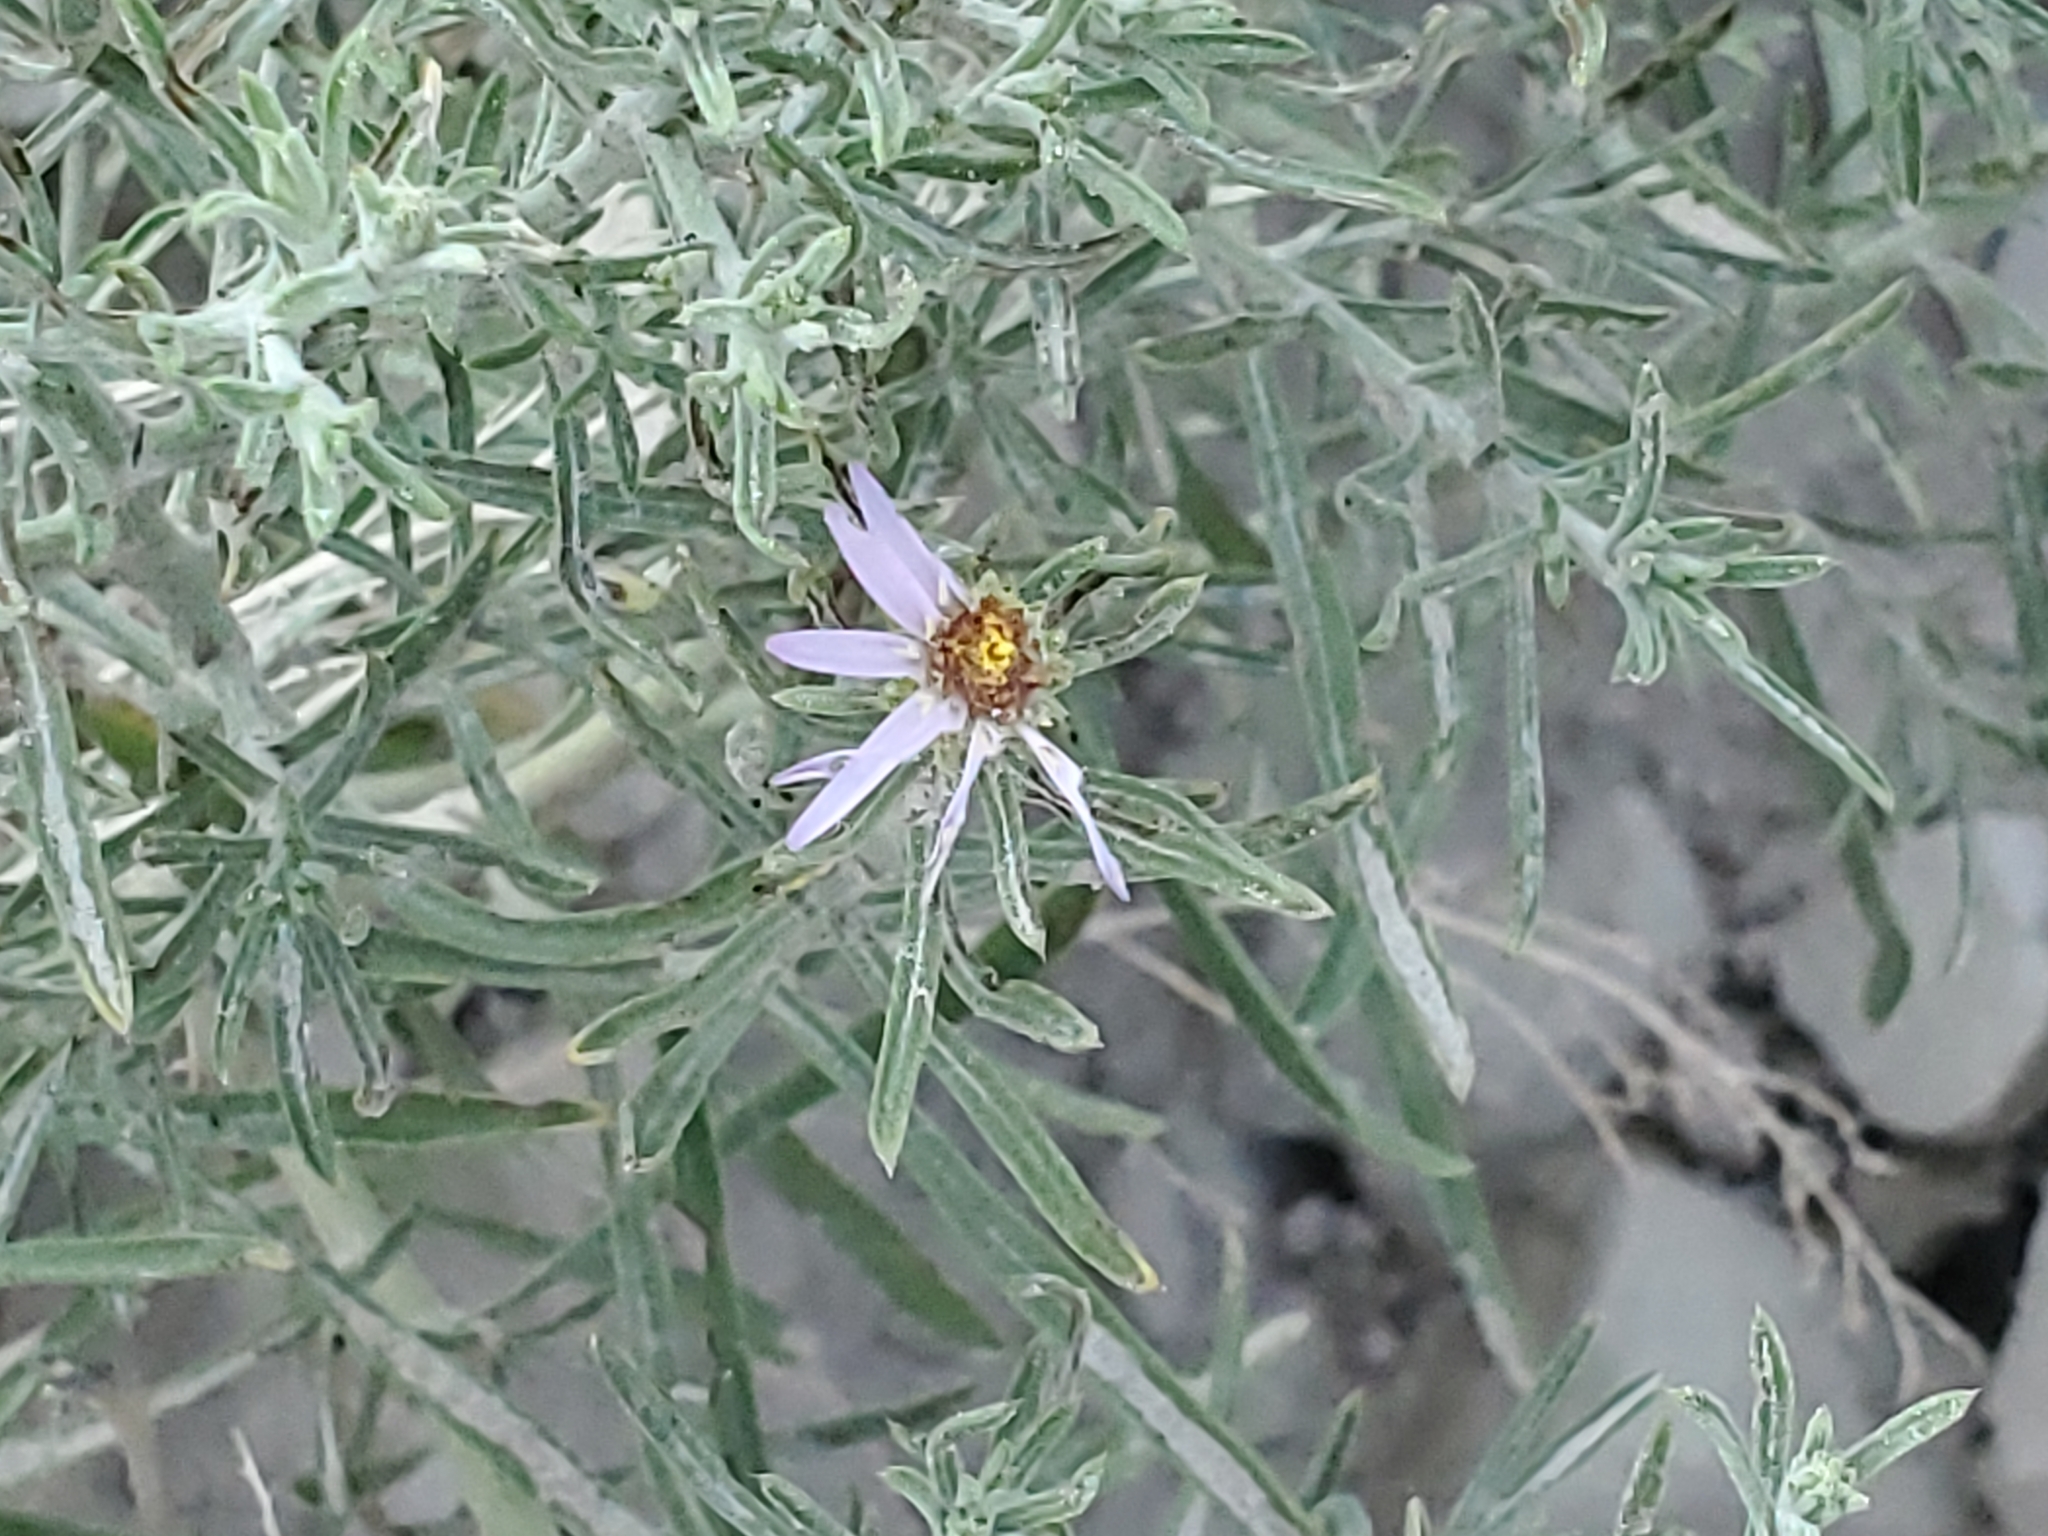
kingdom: Plantae
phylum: Tracheophyta
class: Magnoliopsida
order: Asterales
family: Asteraceae
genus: Dieteria
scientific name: Dieteria canescens
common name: Hoary-aster
